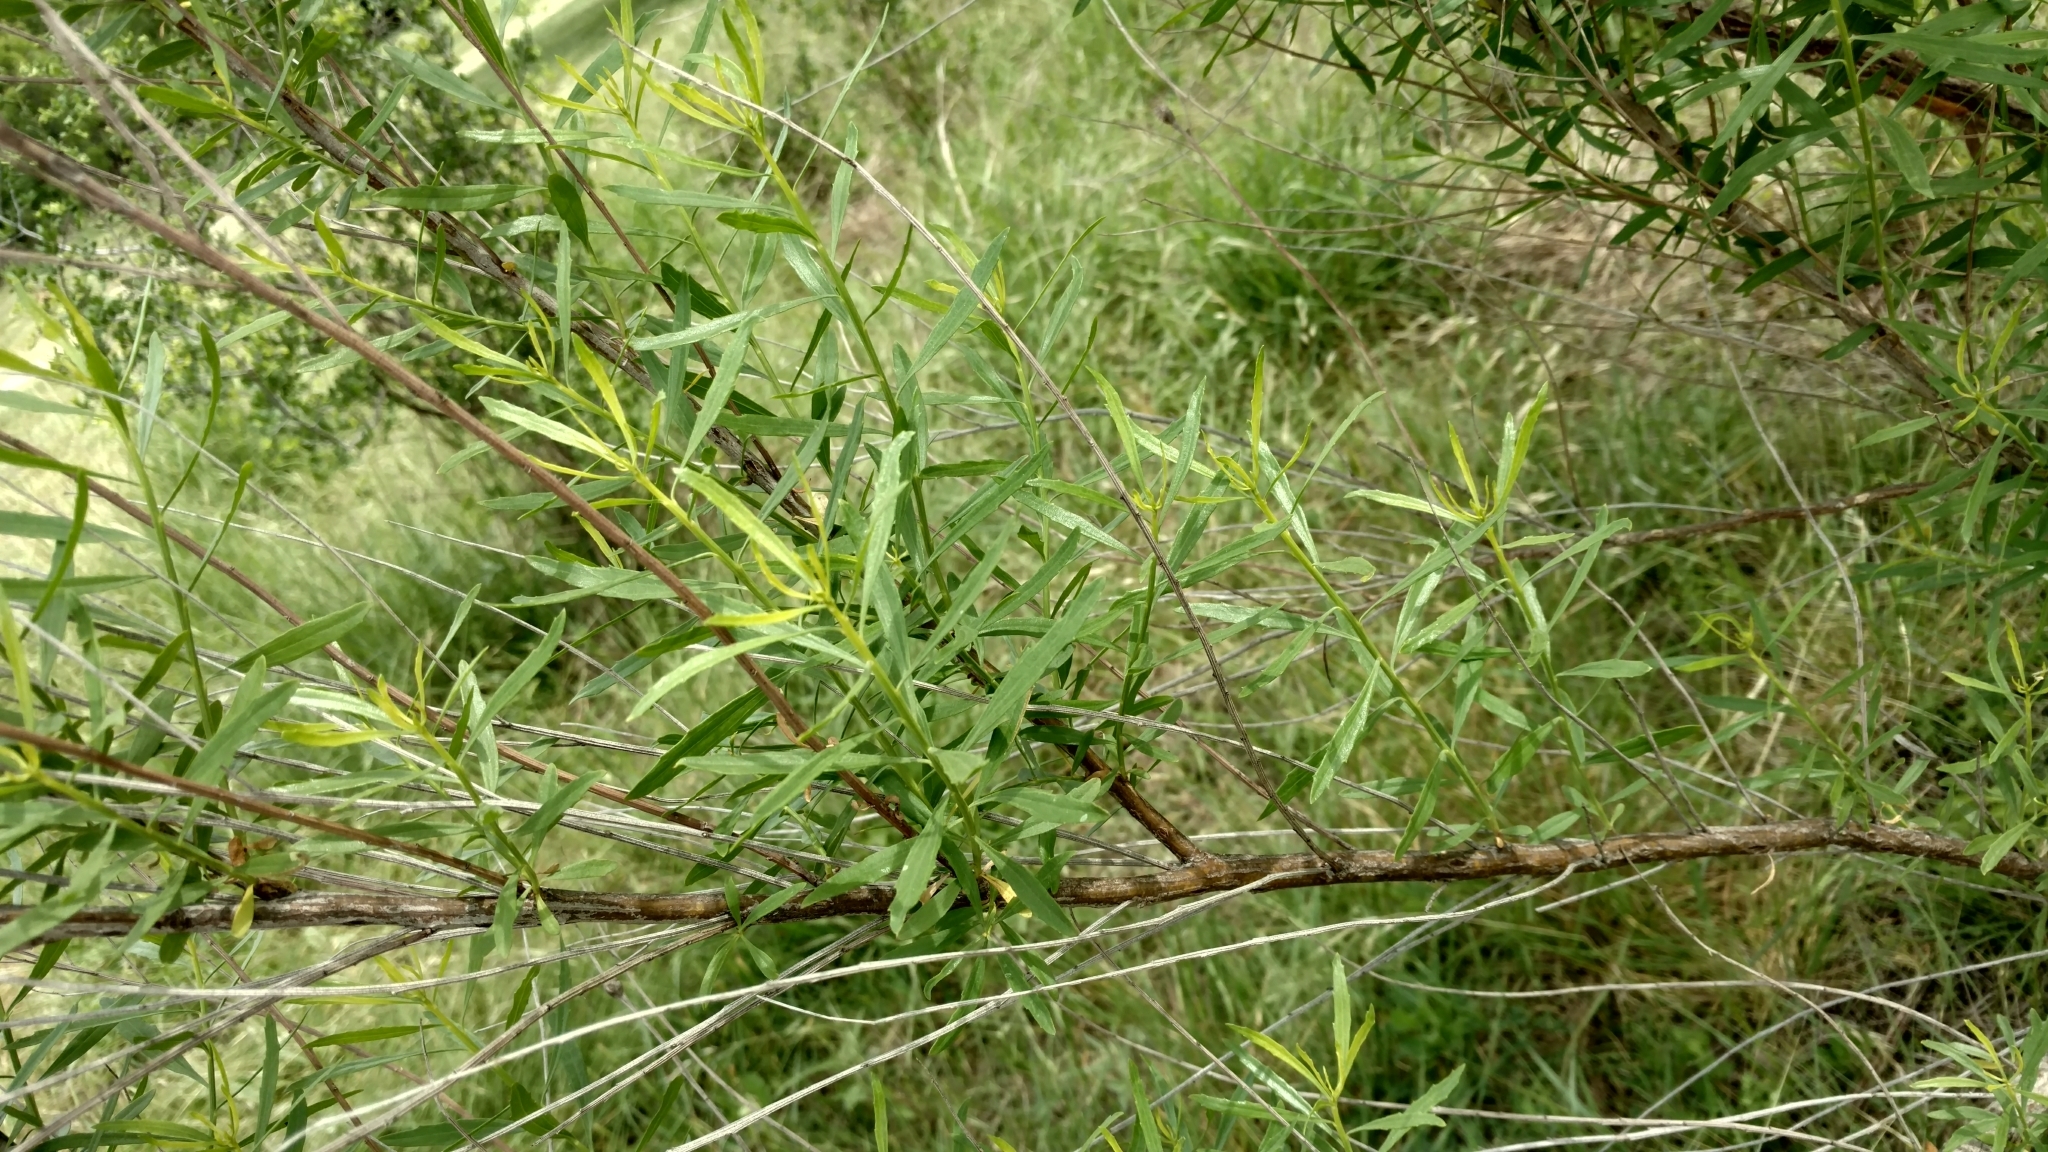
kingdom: Plantae
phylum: Tracheophyta
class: Magnoliopsida
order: Asterales
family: Asteraceae
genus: Baccharis
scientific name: Baccharis neglecta
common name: Roosevelt-weed
